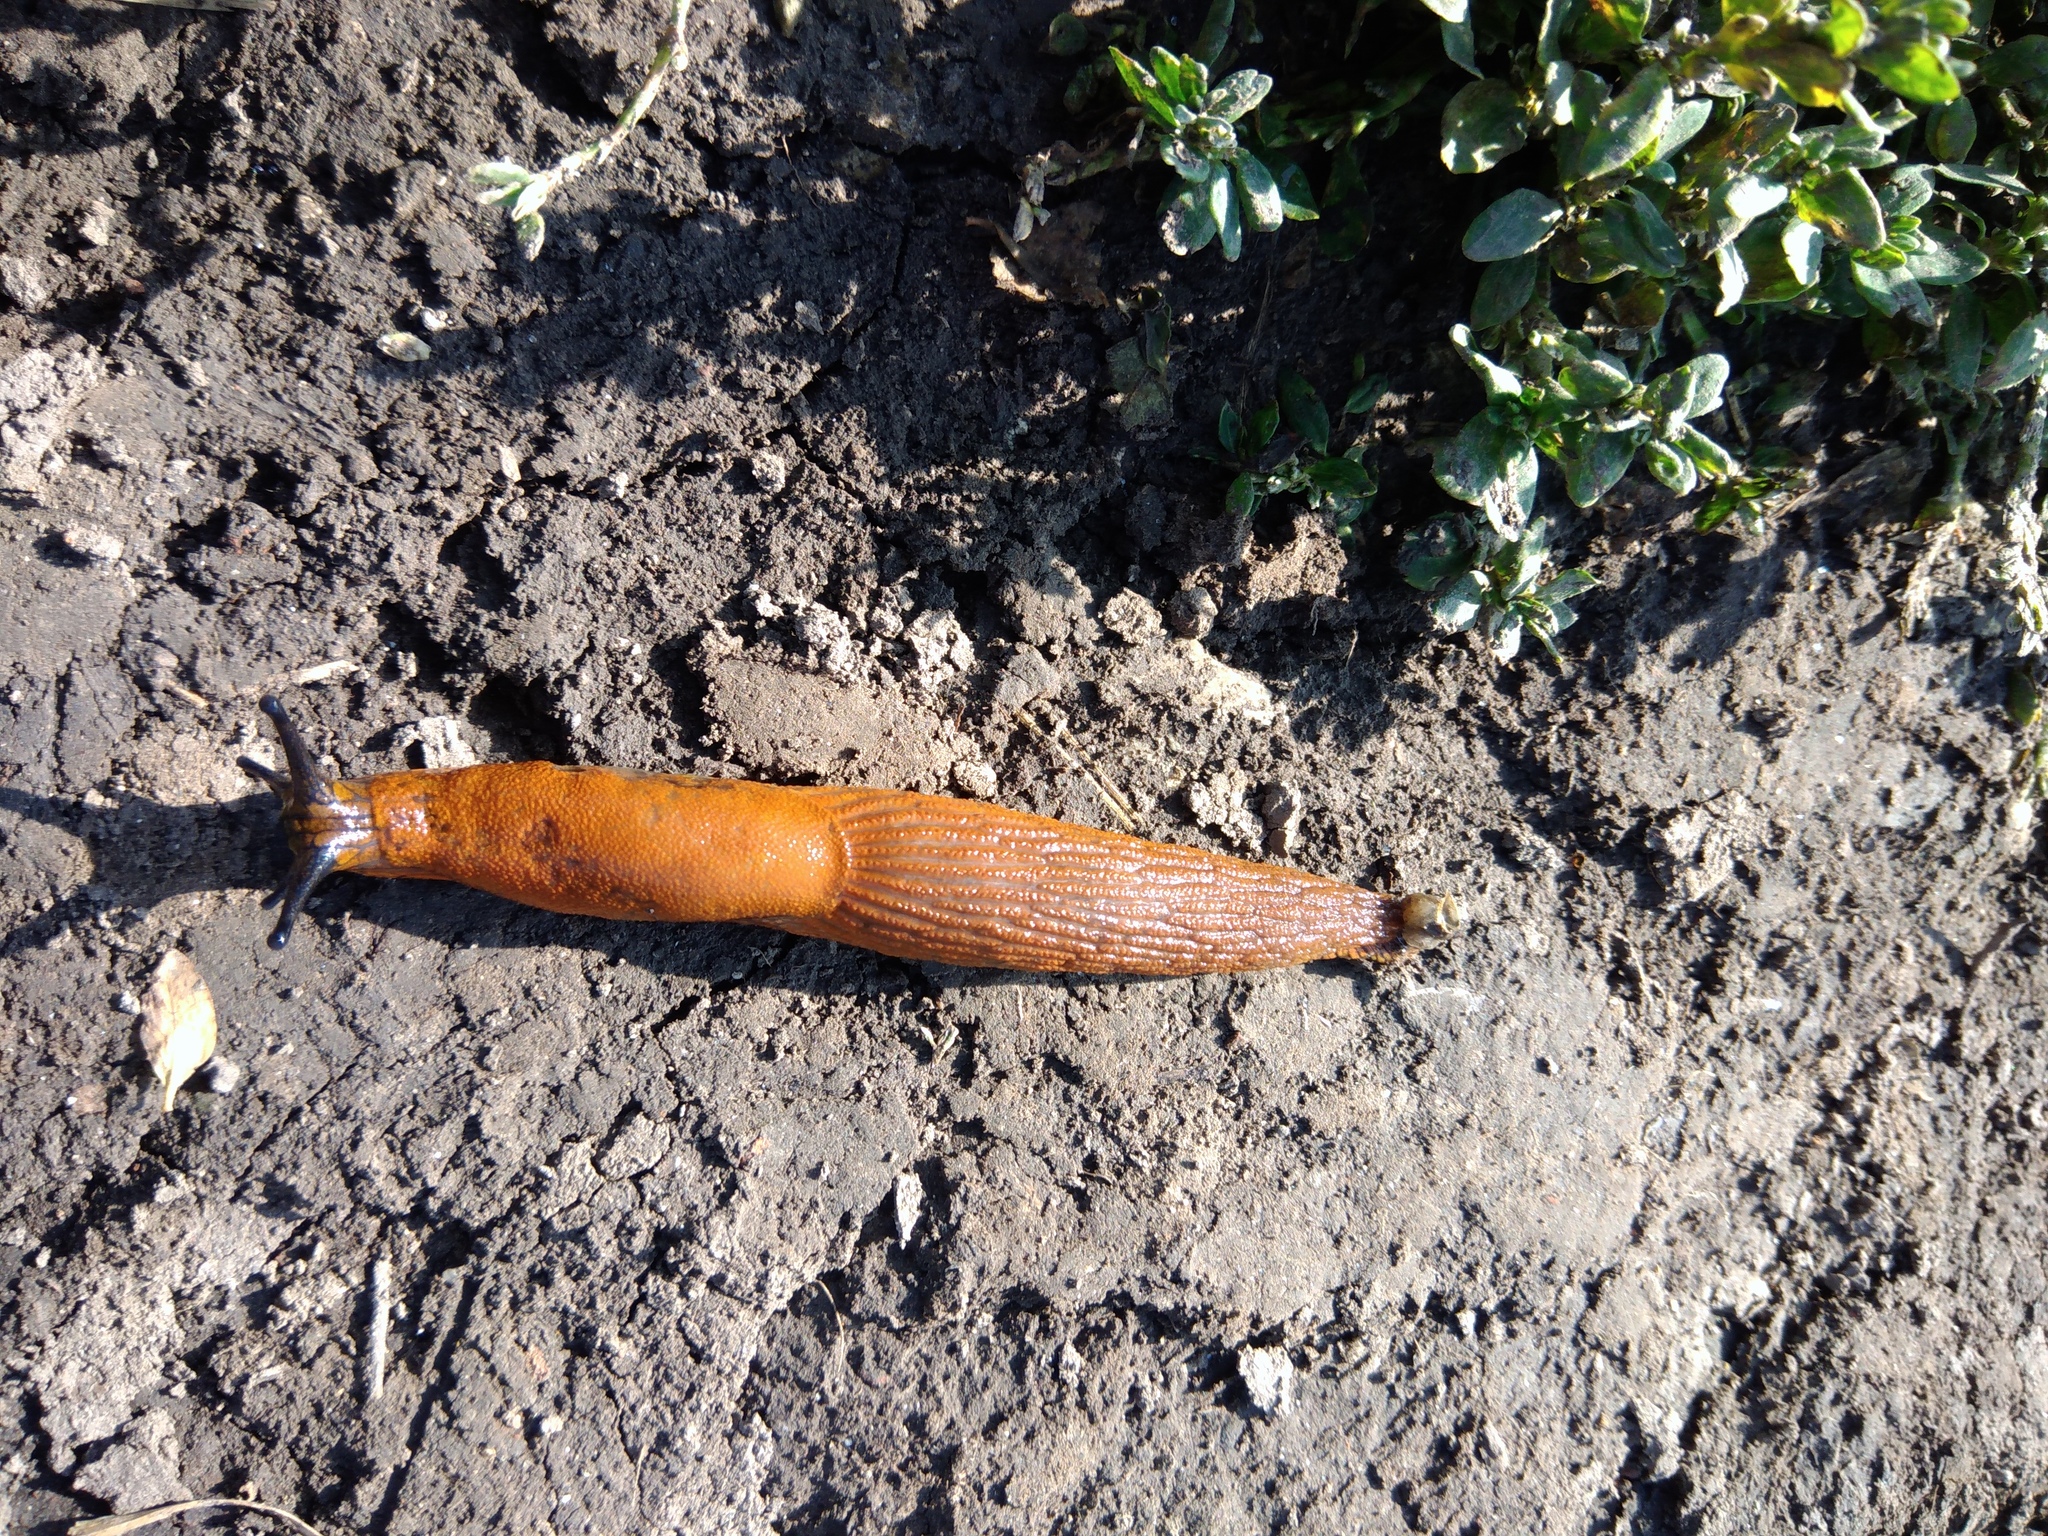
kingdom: Animalia
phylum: Mollusca
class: Gastropoda
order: Stylommatophora
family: Arionidae
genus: Arion
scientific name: Arion vulgaris
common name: Lusitanian slug
